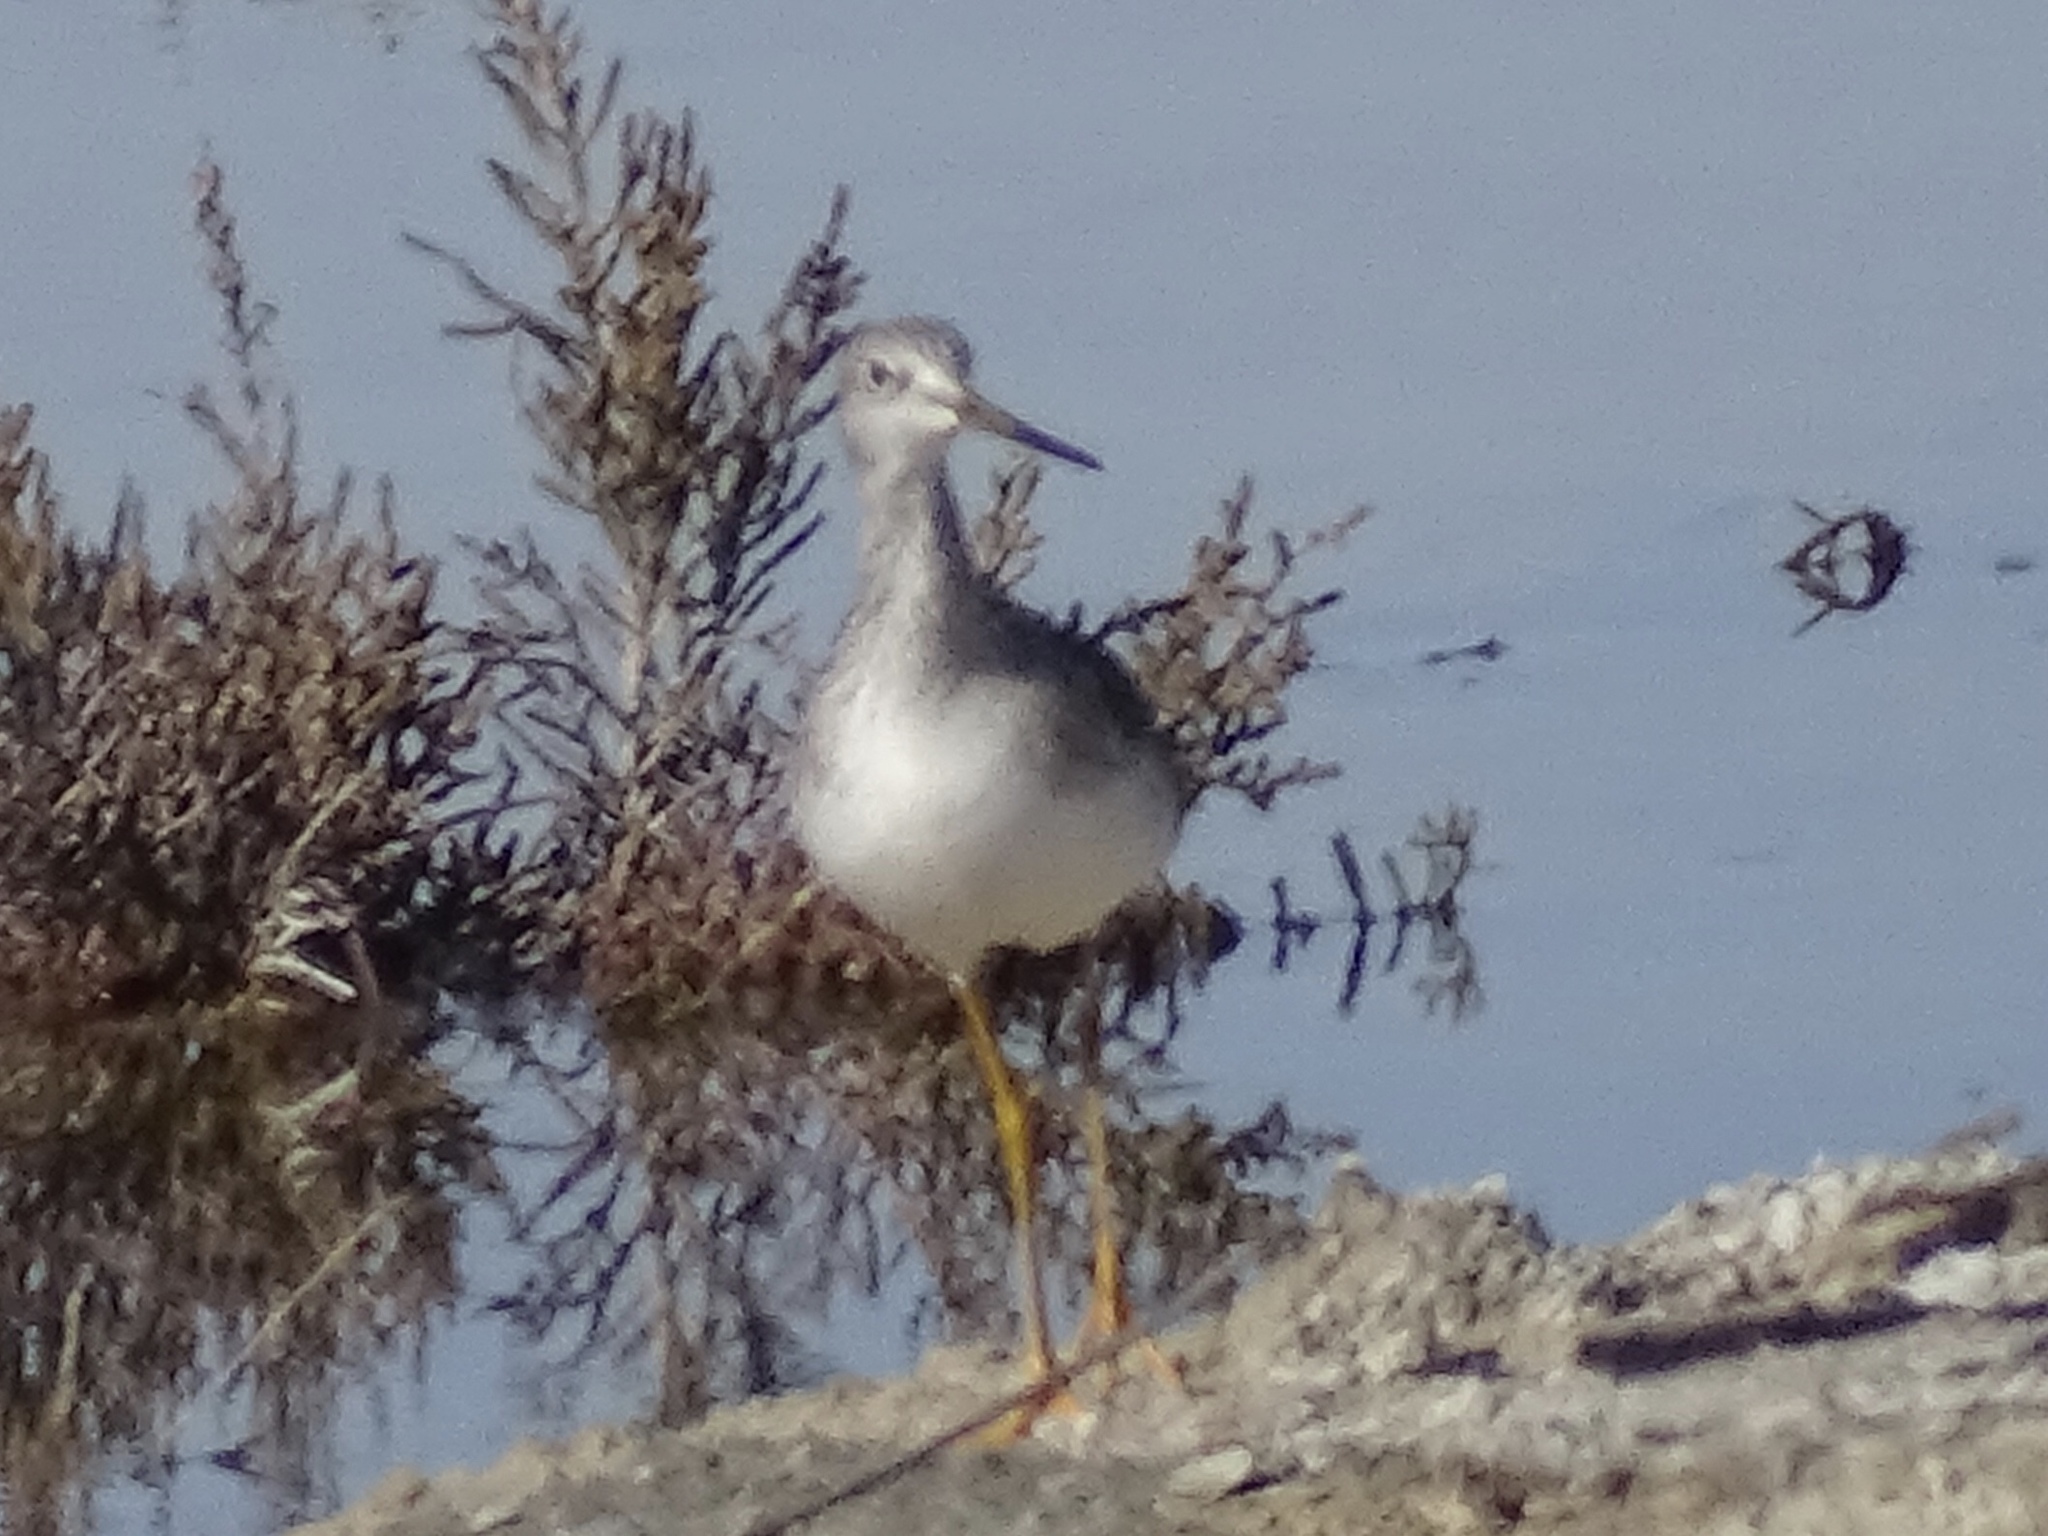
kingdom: Animalia
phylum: Chordata
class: Aves
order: Charadriiformes
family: Scolopacidae
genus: Tringa
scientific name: Tringa melanoleuca
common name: Greater yellowlegs
